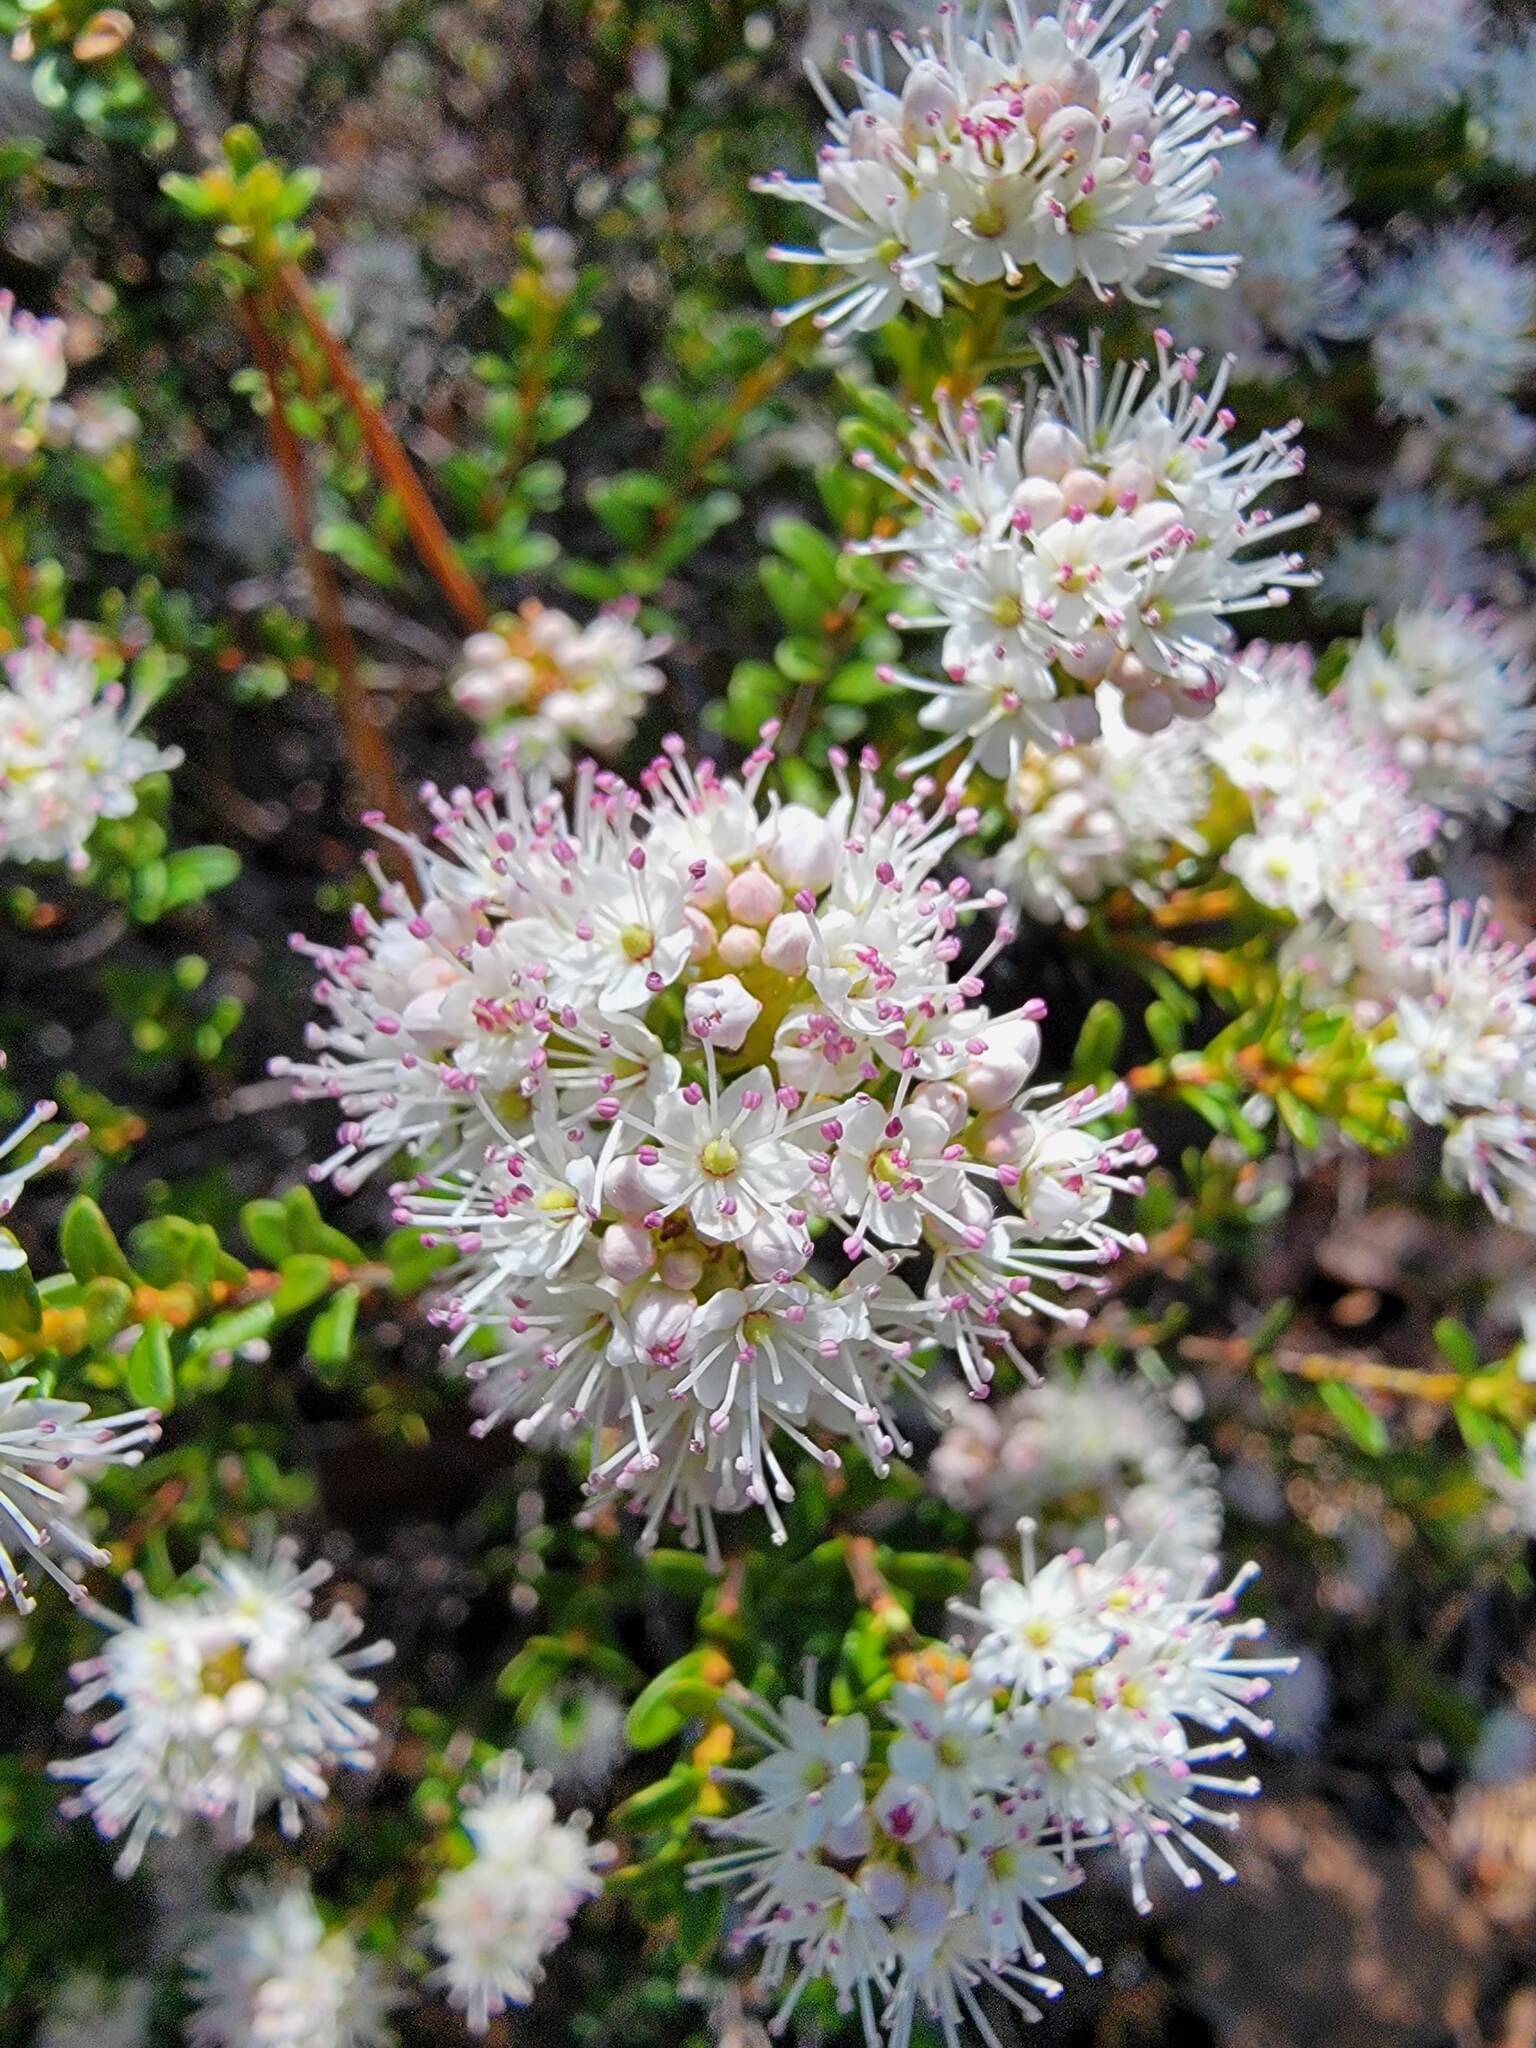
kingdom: Plantae
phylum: Tracheophyta
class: Magnoliopsida
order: Ericales
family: Ericaceae
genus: Kalmia
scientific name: Kalmia buxifolia
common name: Sandmyrtle
